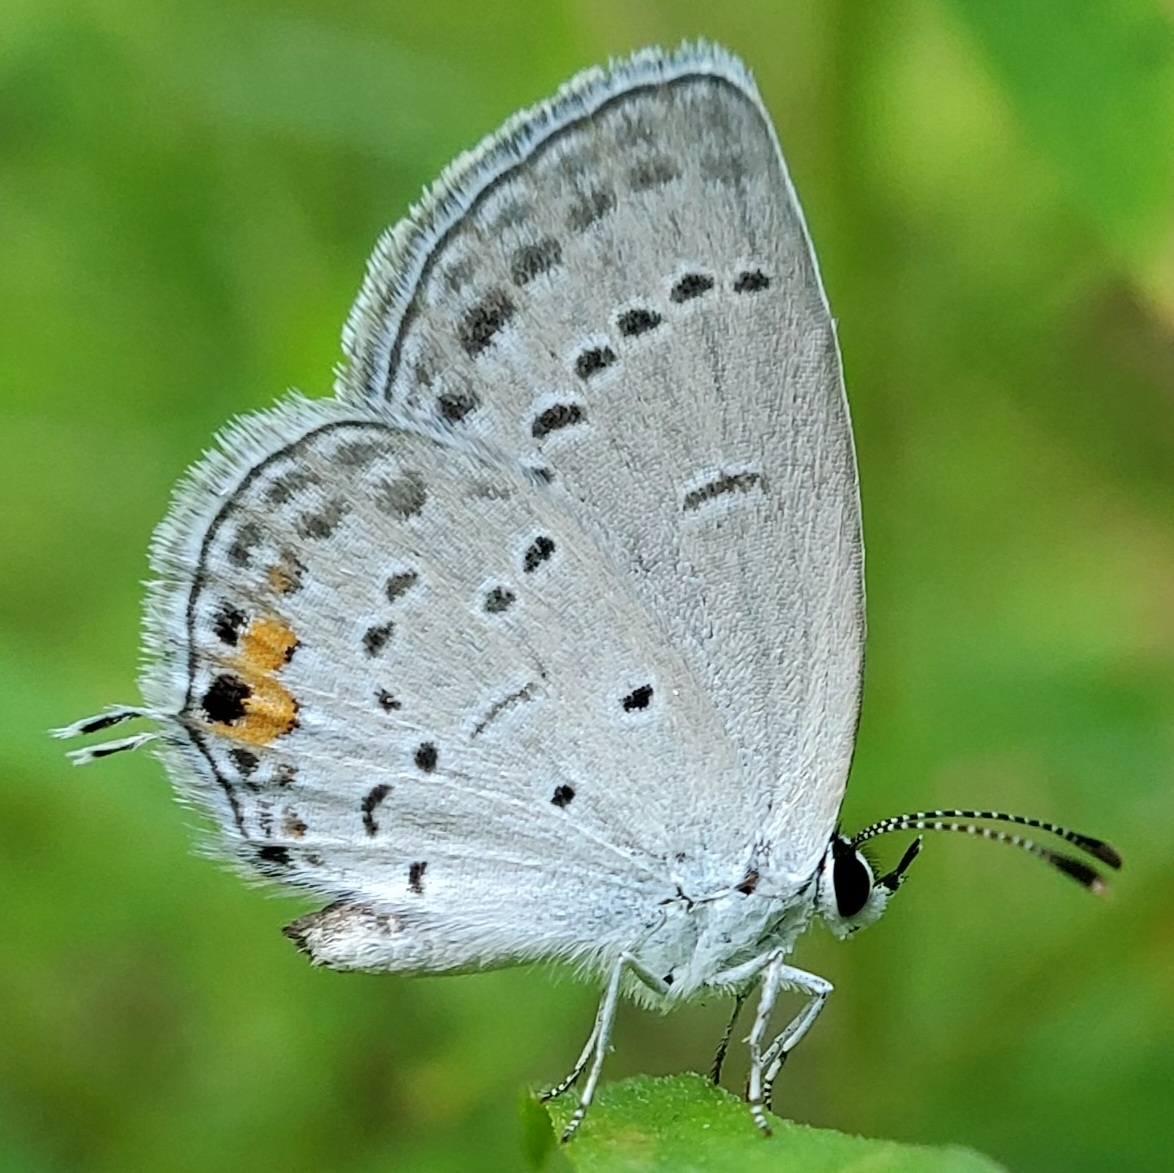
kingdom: Animalia
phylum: Arthropoda
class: Insecta
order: Lepidoptera
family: Lycaenidae
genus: Elkalyce
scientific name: Elkalyce comyntas
